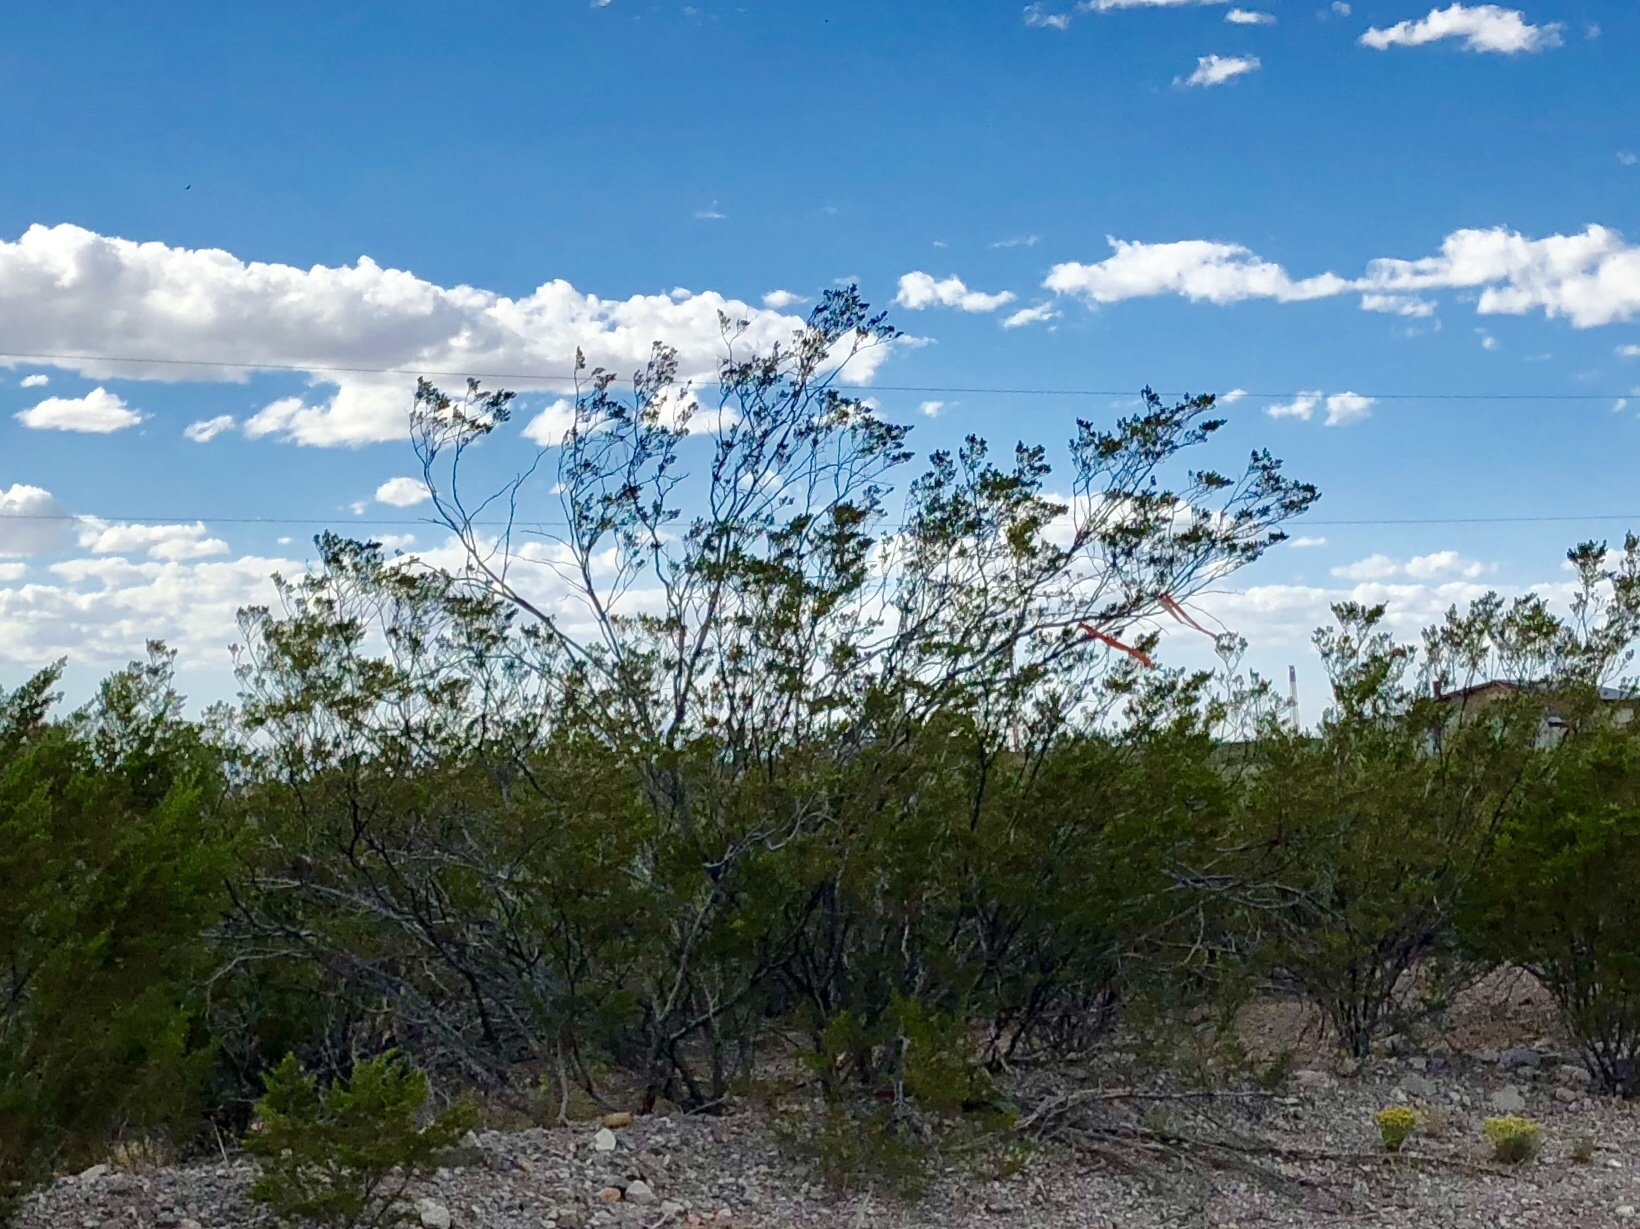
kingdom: Plantae
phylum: Tracheophyta
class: Magnoliopsida
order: Zygophyllales
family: Zygophyllaceae
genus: Larrea
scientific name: Larrea tridentata
